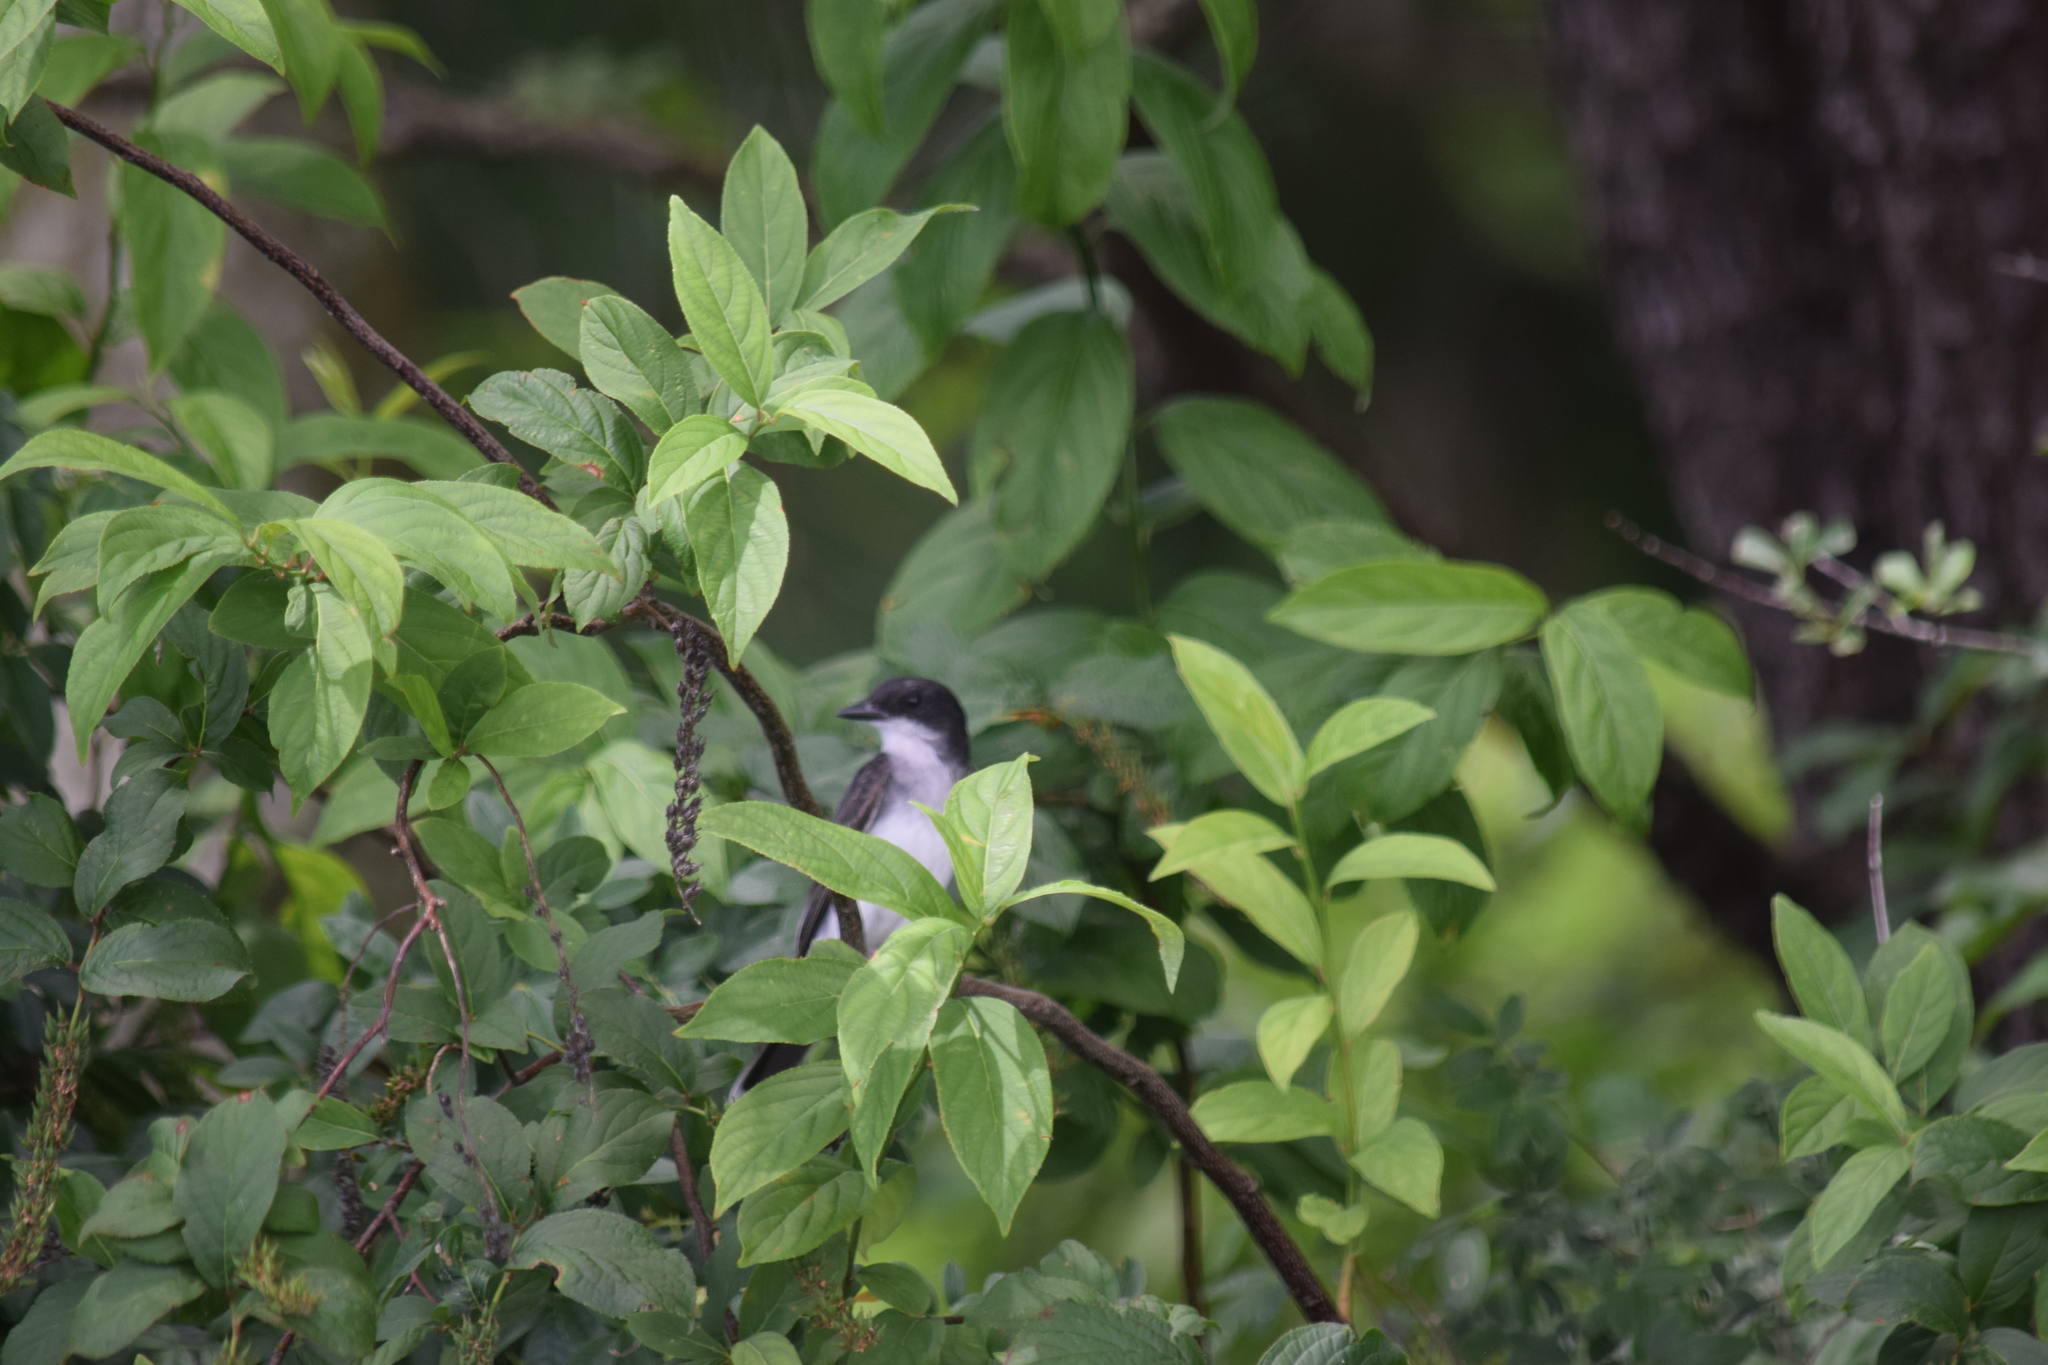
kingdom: Animalia
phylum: Chordata
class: Aves
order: Passeriformes
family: Tyrannidae
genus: Tyrannus
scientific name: Tyrannus tyrannus
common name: Eastern kingbird
